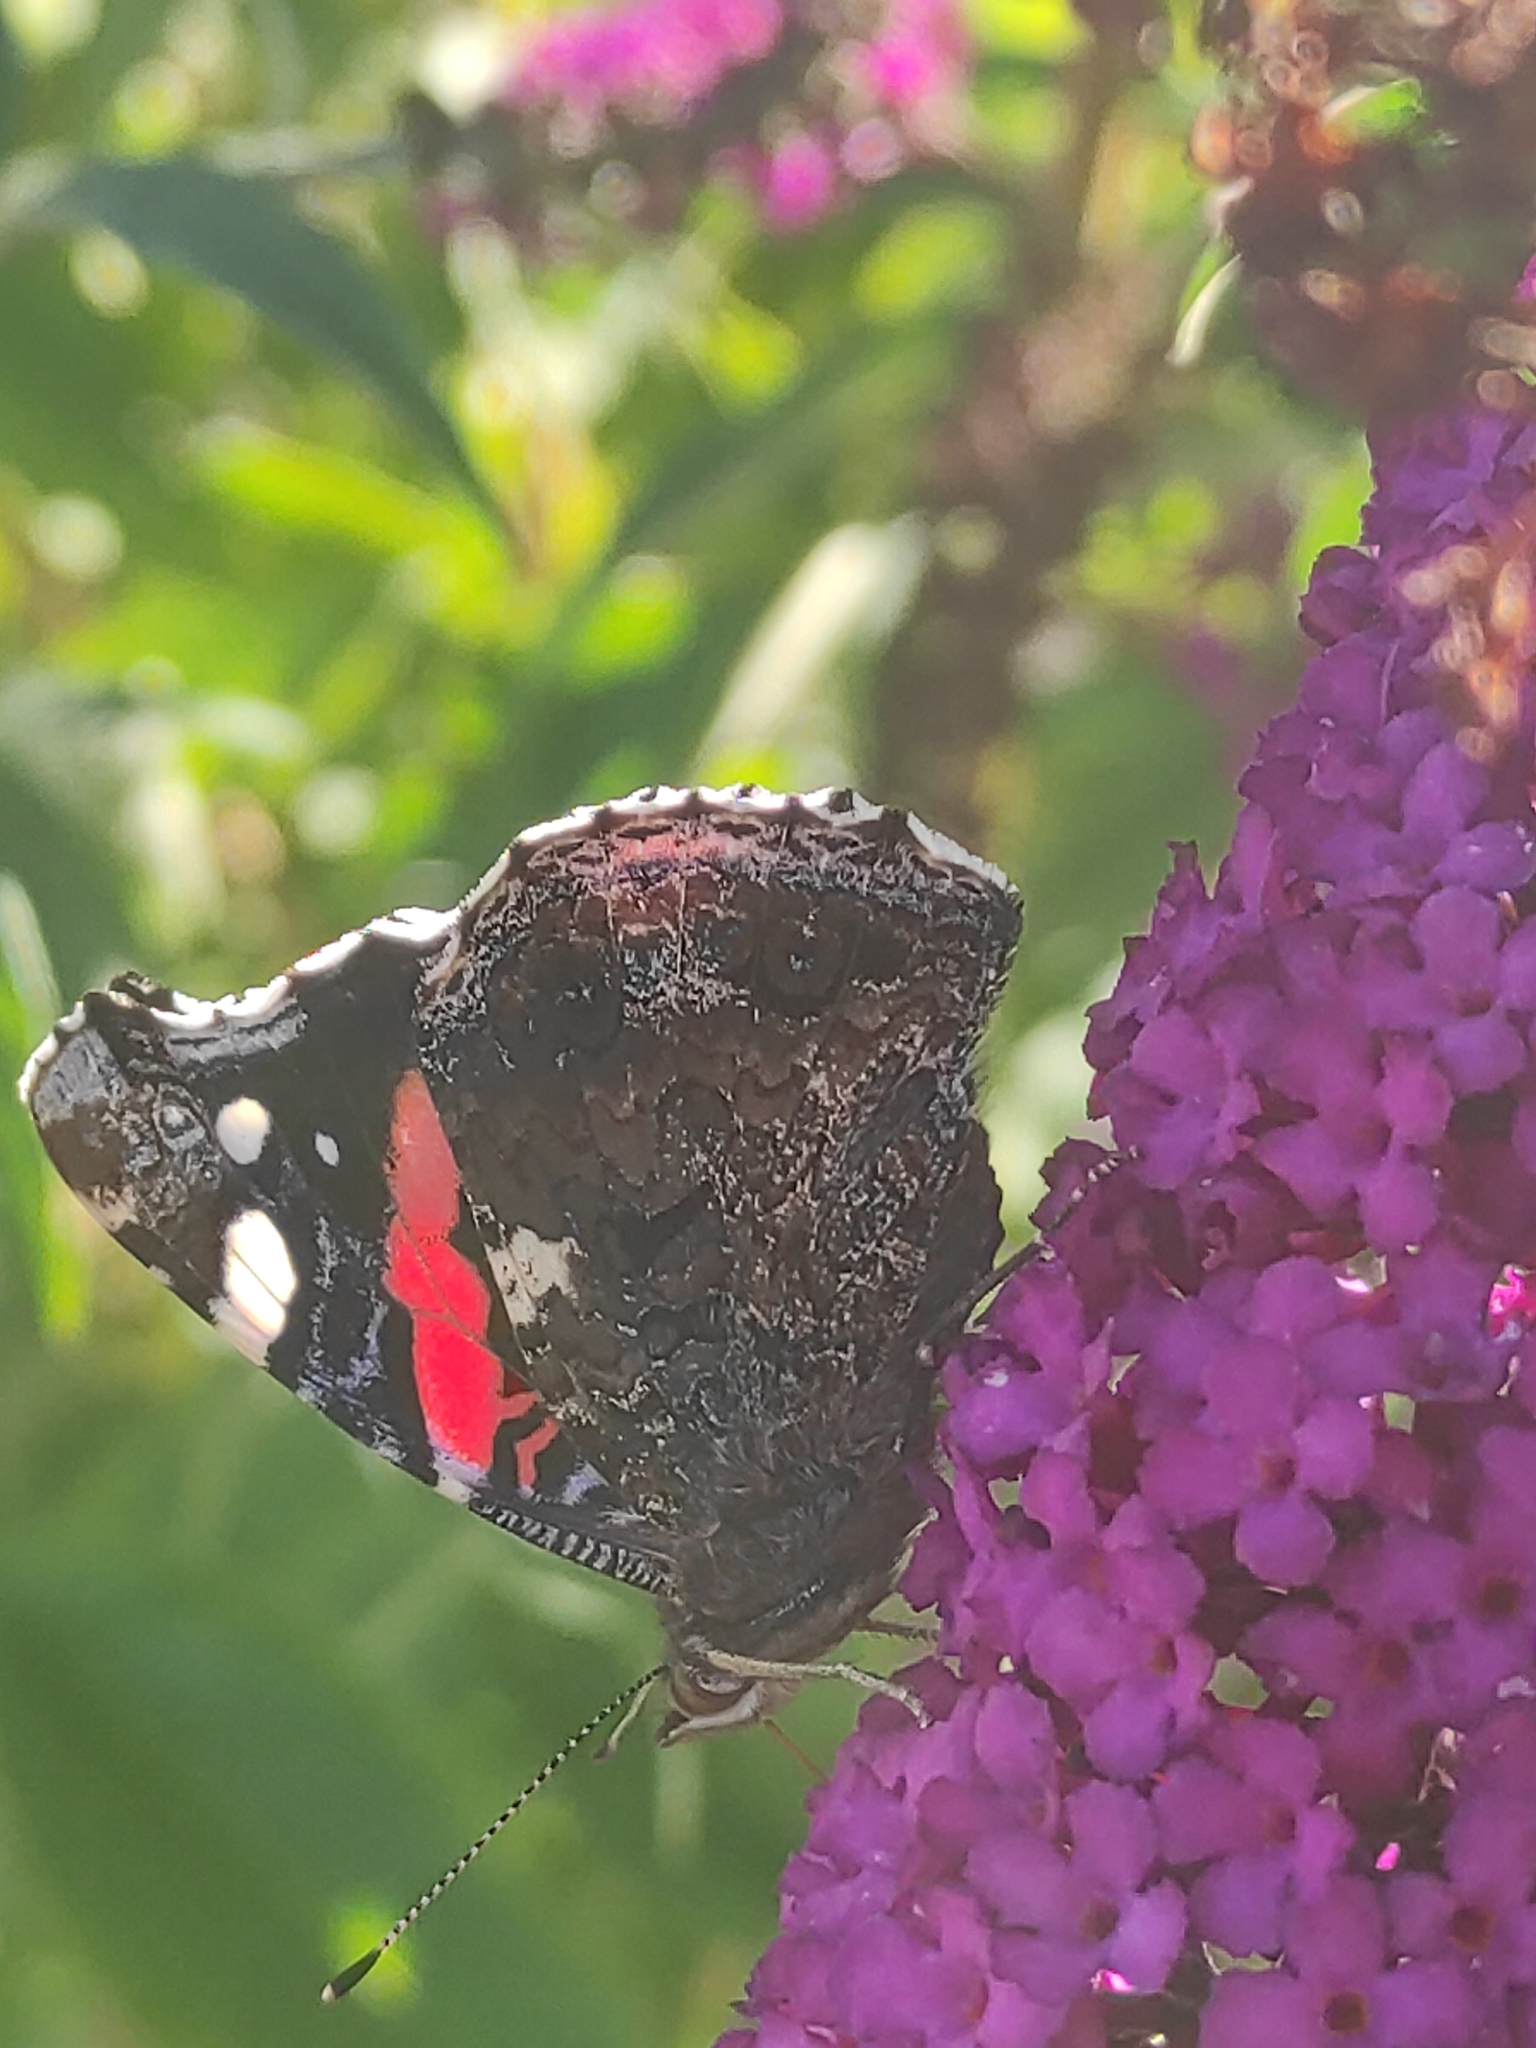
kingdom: Animalia
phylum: Arthropoda
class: Insecta
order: Lepidoptera
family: Nymphalidae
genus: Vanessa
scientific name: Vanessa atalanta
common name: Red admiral
